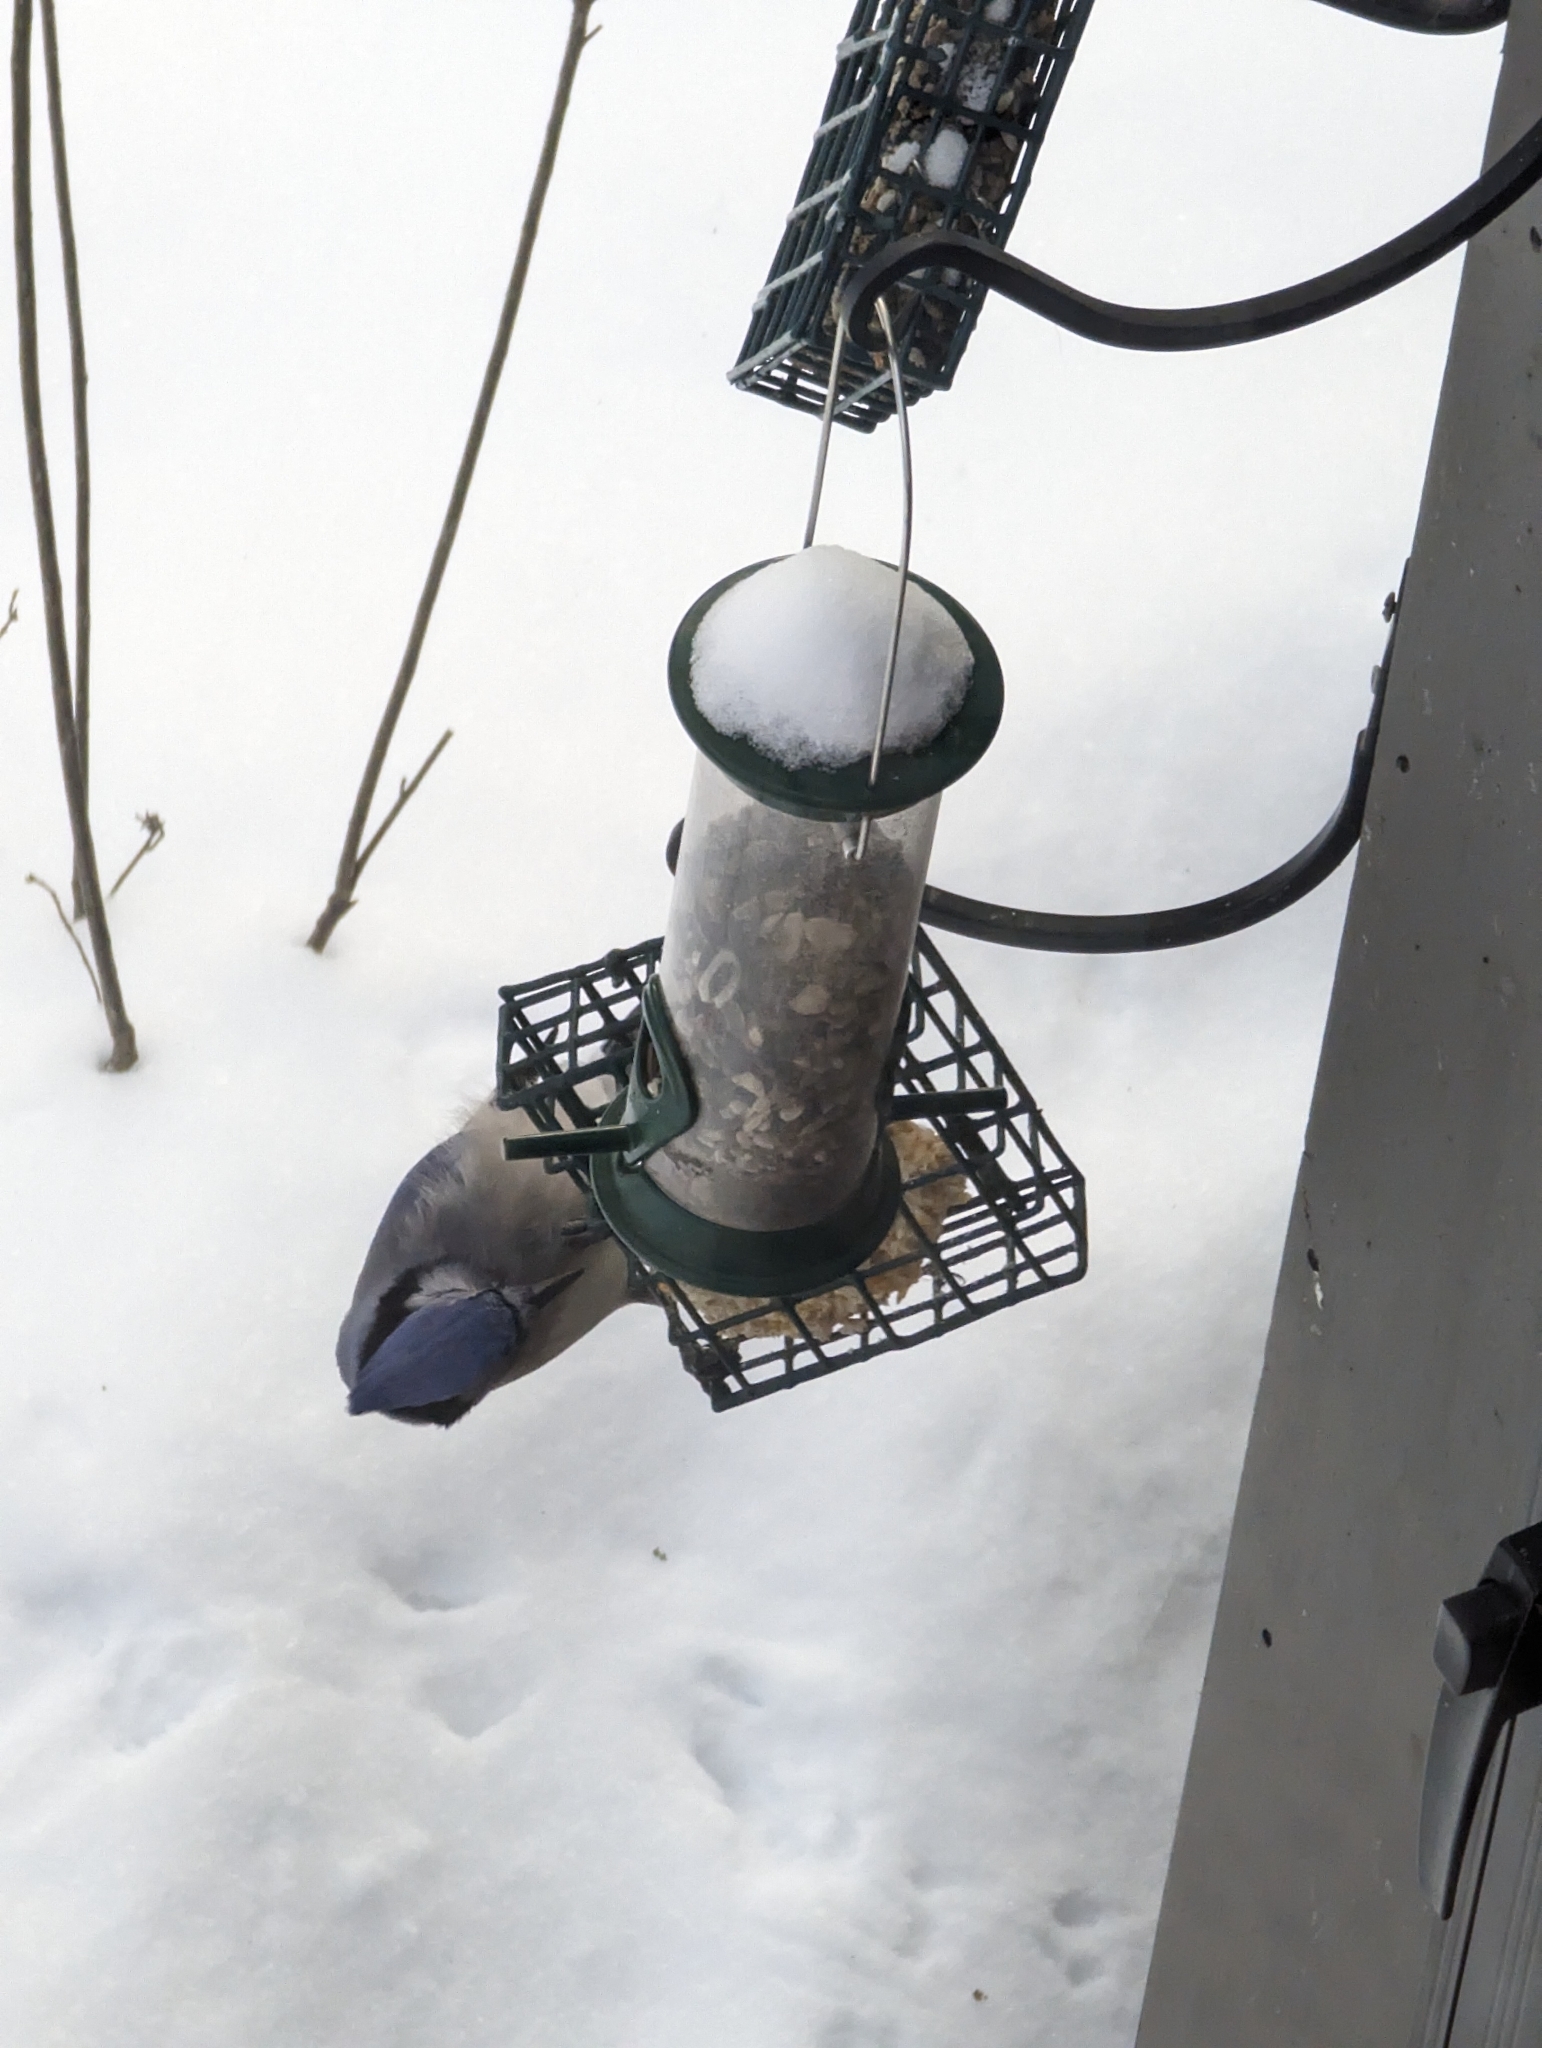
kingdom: Animalia
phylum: Chordata
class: Aves
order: Passeriformes
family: Corvidae
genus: Cyanocitta
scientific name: Cyanocitta cristata
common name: Blue jay
